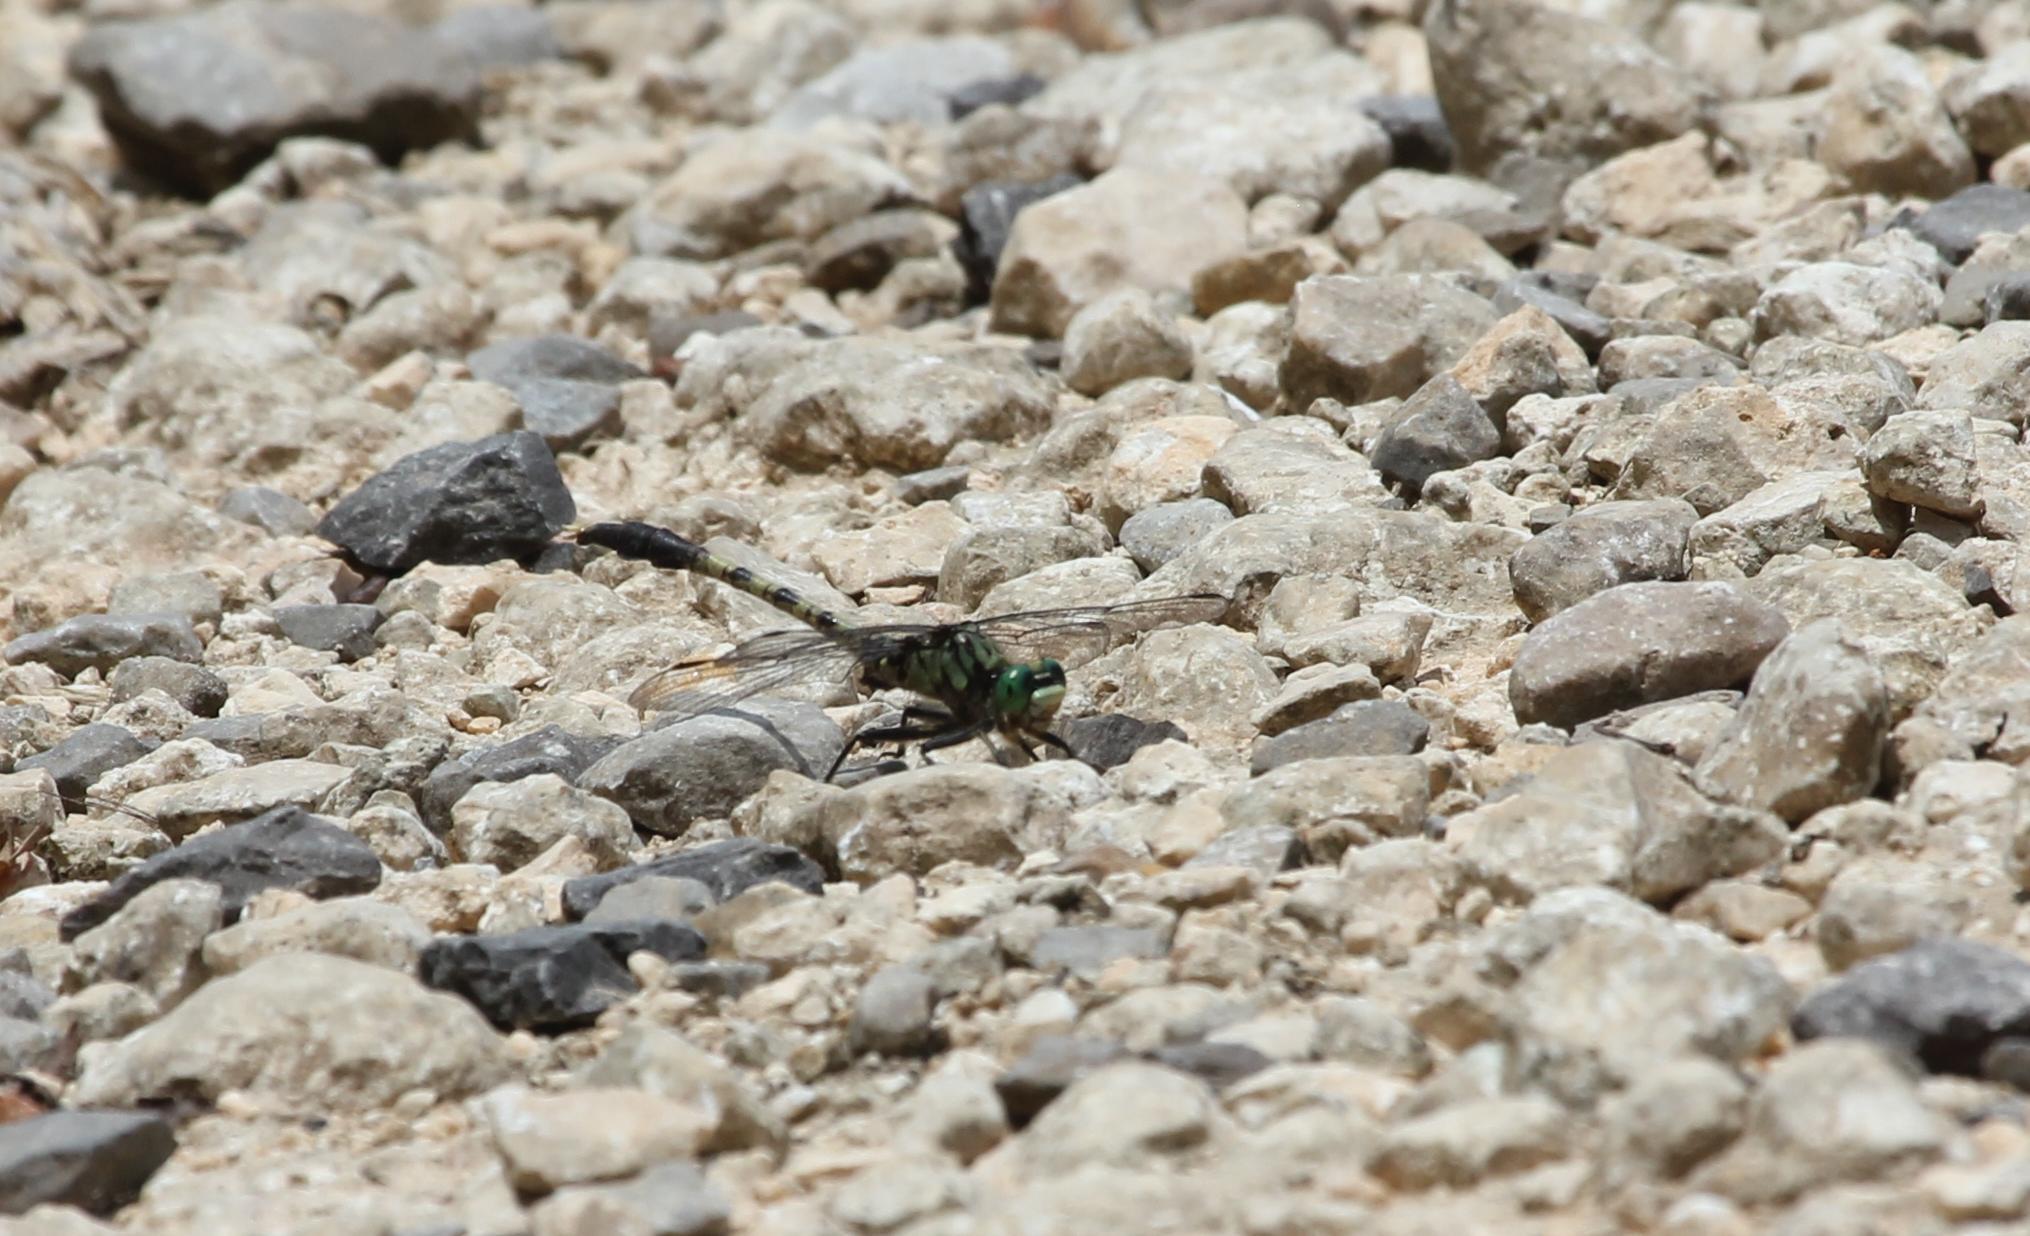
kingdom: Animalia
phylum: Arthropoda
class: Insecta
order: Odonata
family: Gomphidae
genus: Arigomphus
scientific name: Arigomphus maxwelli
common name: Bayou clubtail
